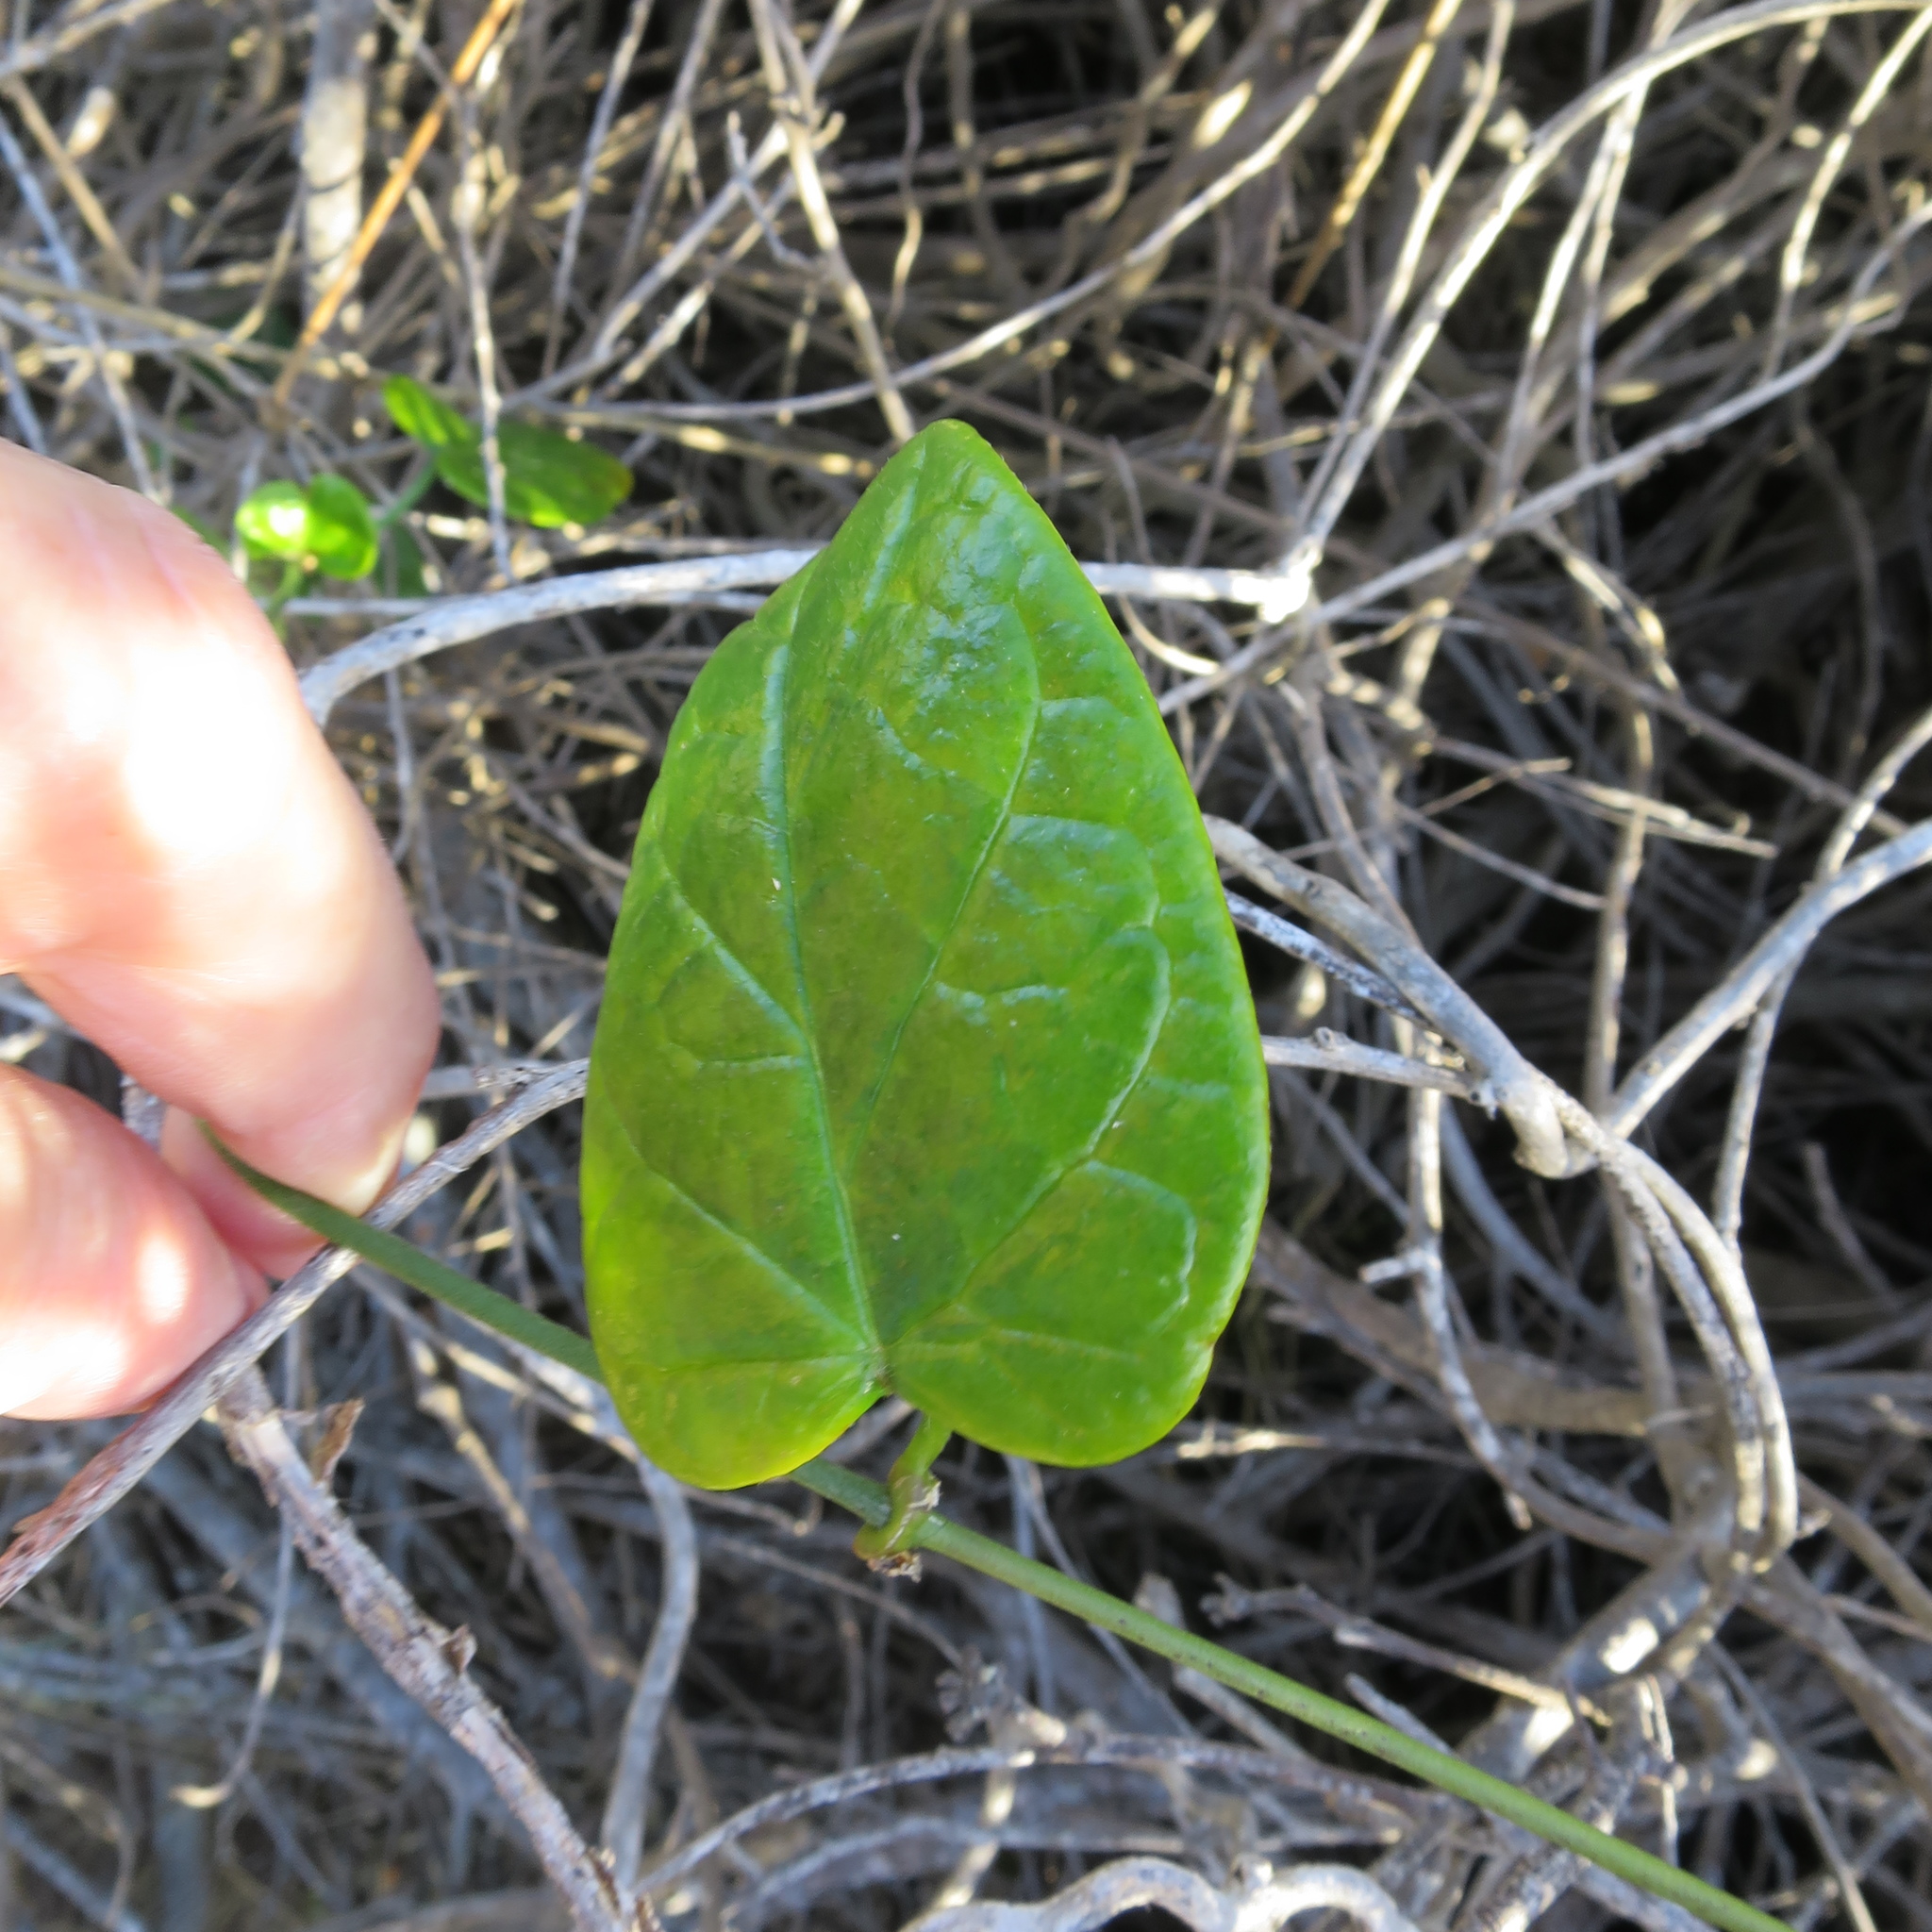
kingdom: Plantae
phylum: Tracheophyta
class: Magnoliopsida
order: Gentianales
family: Apocynaceae
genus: Cynanchum
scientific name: Cynanchum obtusifolium
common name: Monkey-rope
